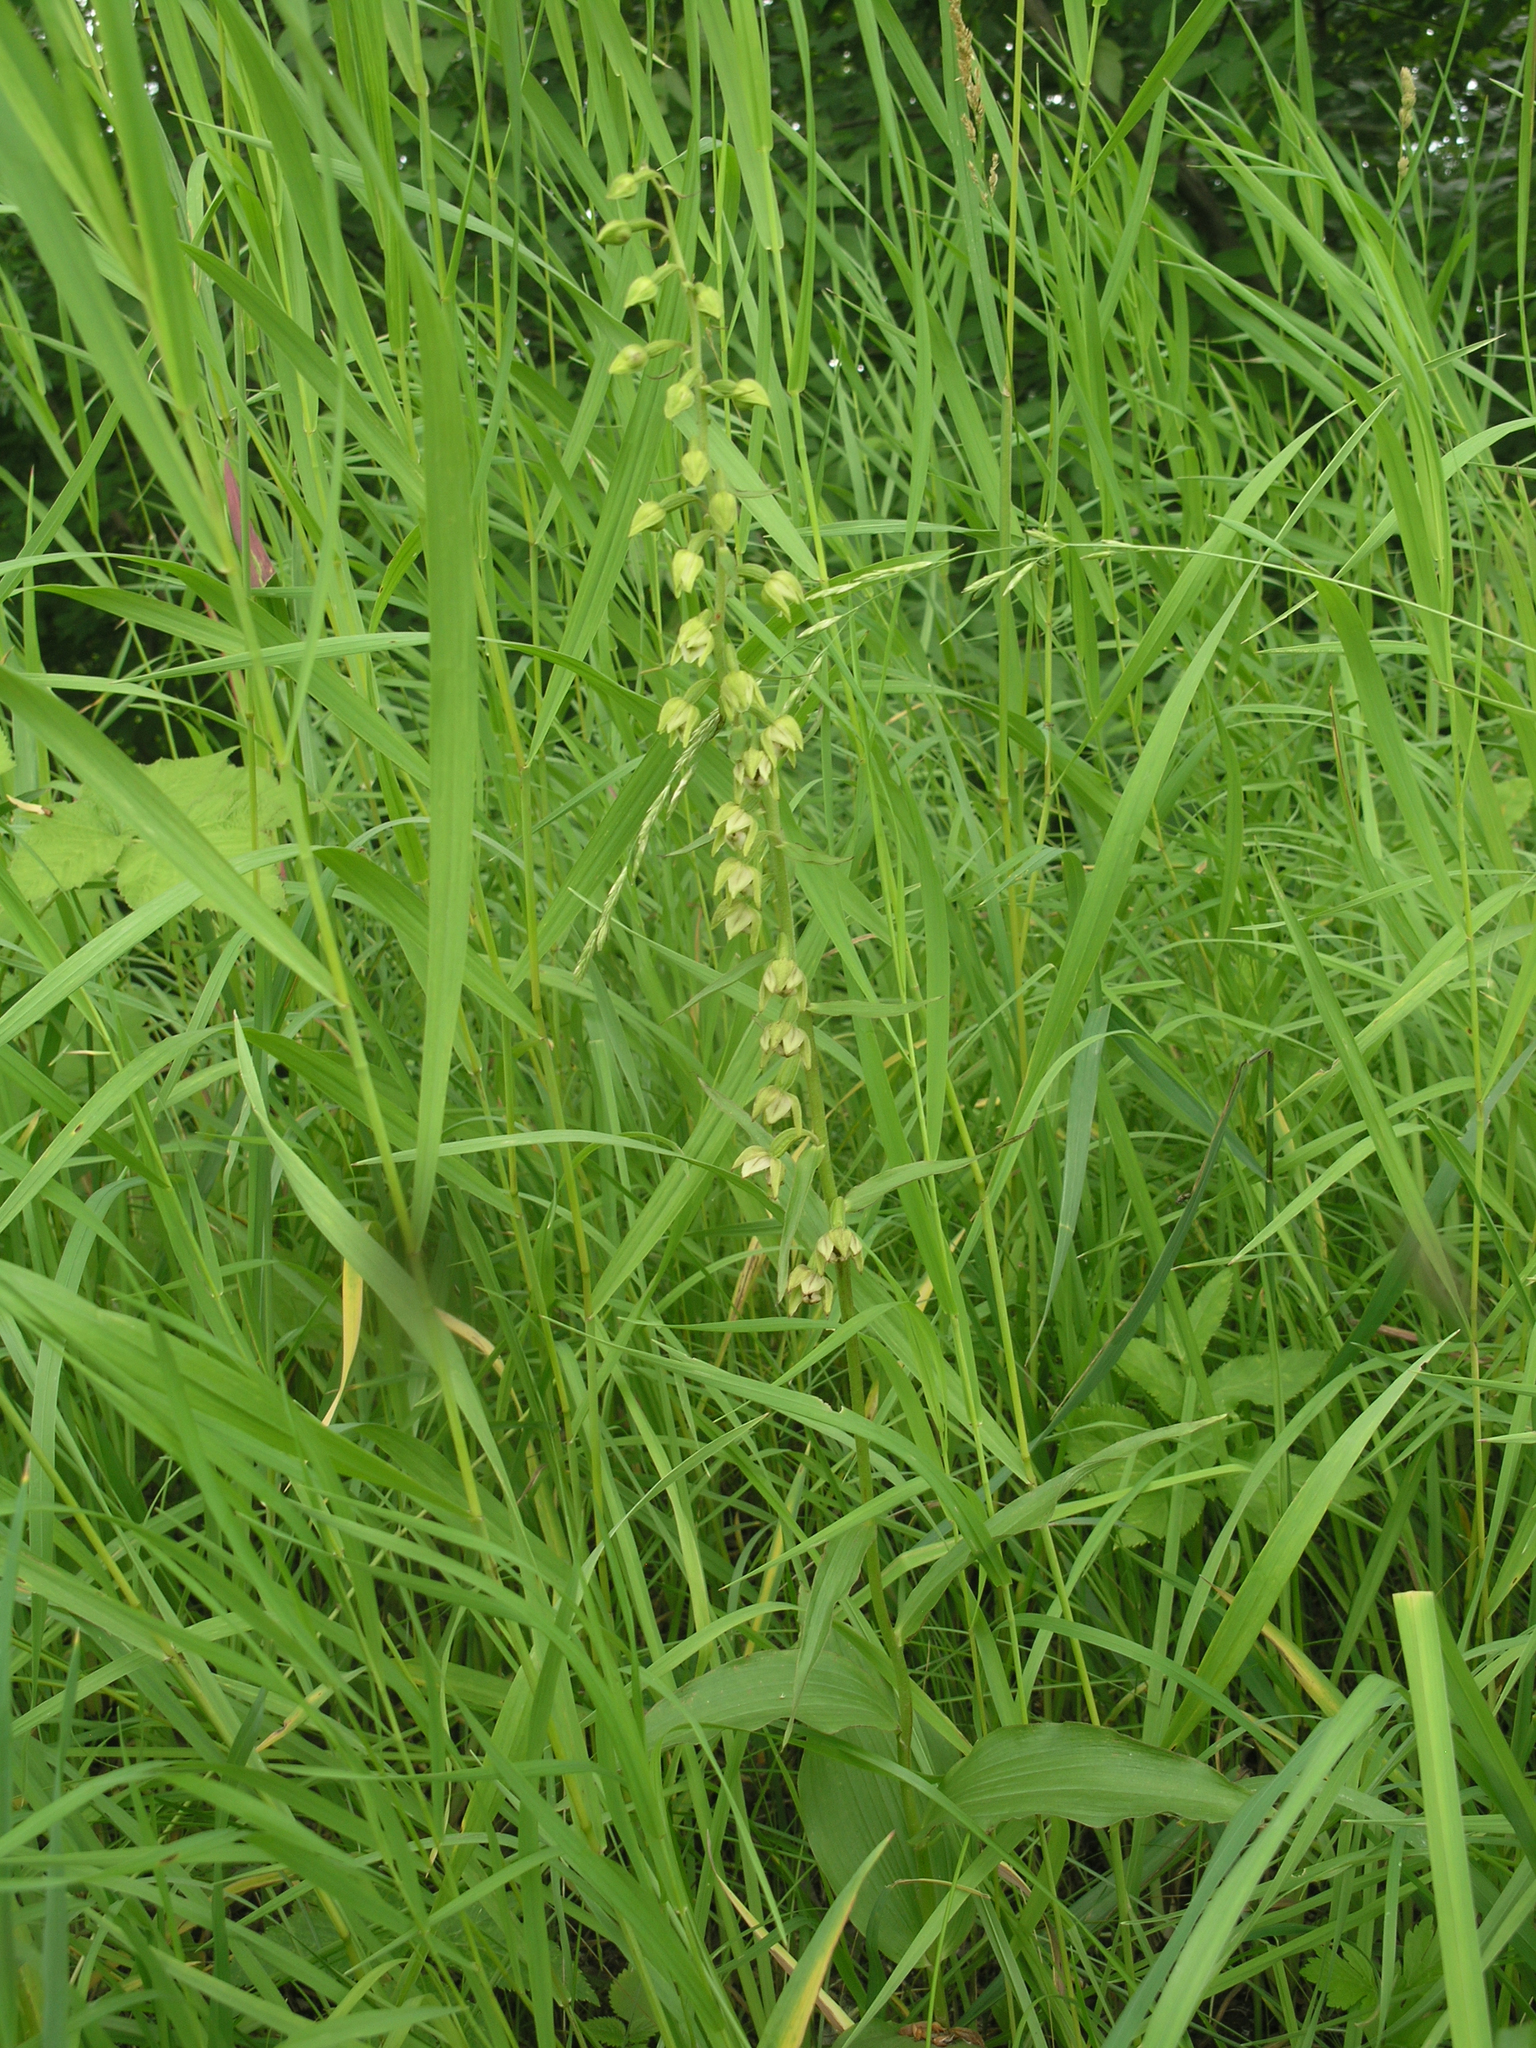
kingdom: Plantae
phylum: Tracheophyta
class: Liliopsida
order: Asparagales
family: Orchidaceae
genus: Epipactis
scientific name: Epipactis helleborine
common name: Broad-leaved helleborine
